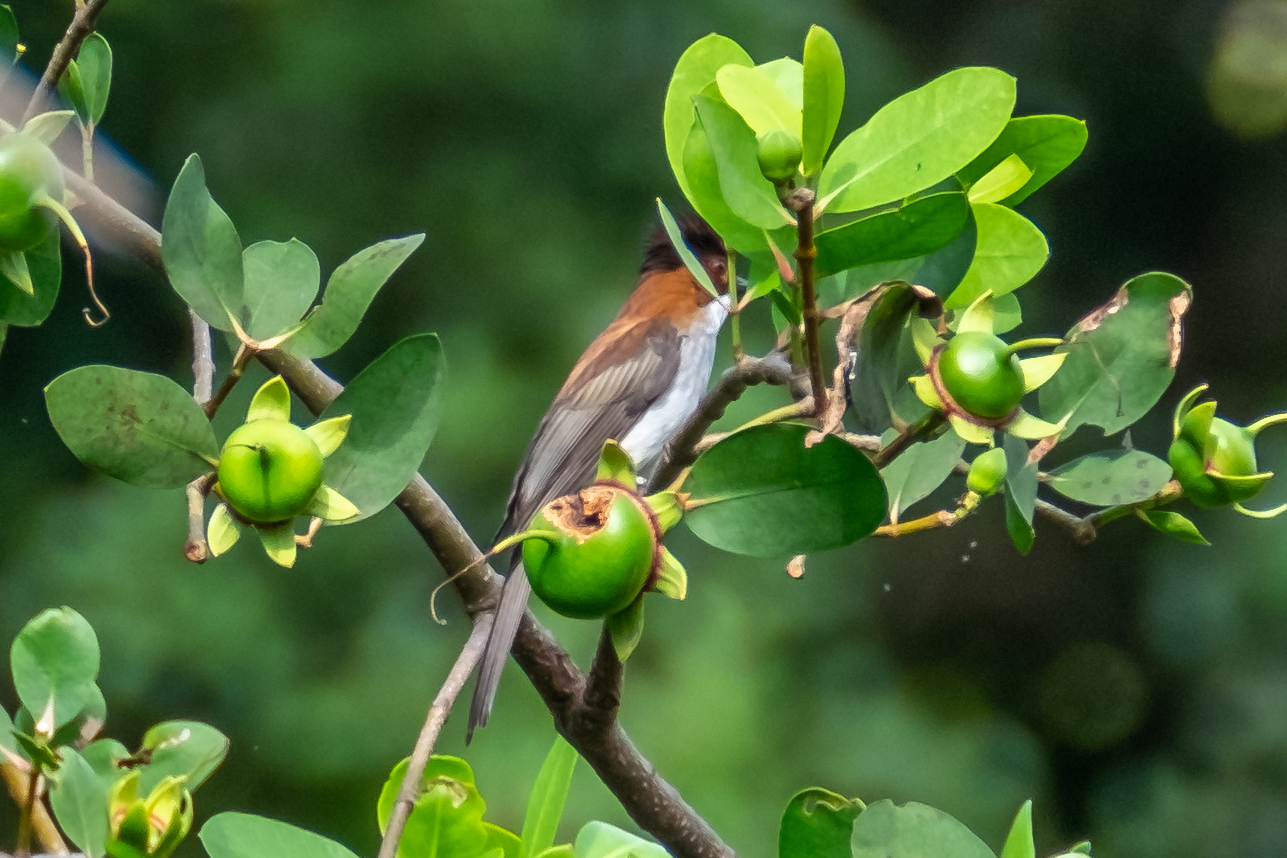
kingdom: Animalia
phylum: Chordata
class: Aves
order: Passeriformes
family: Pycnonotidae
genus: Hemixos
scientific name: Hemixos castanonotus
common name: Chestnut bulbul
